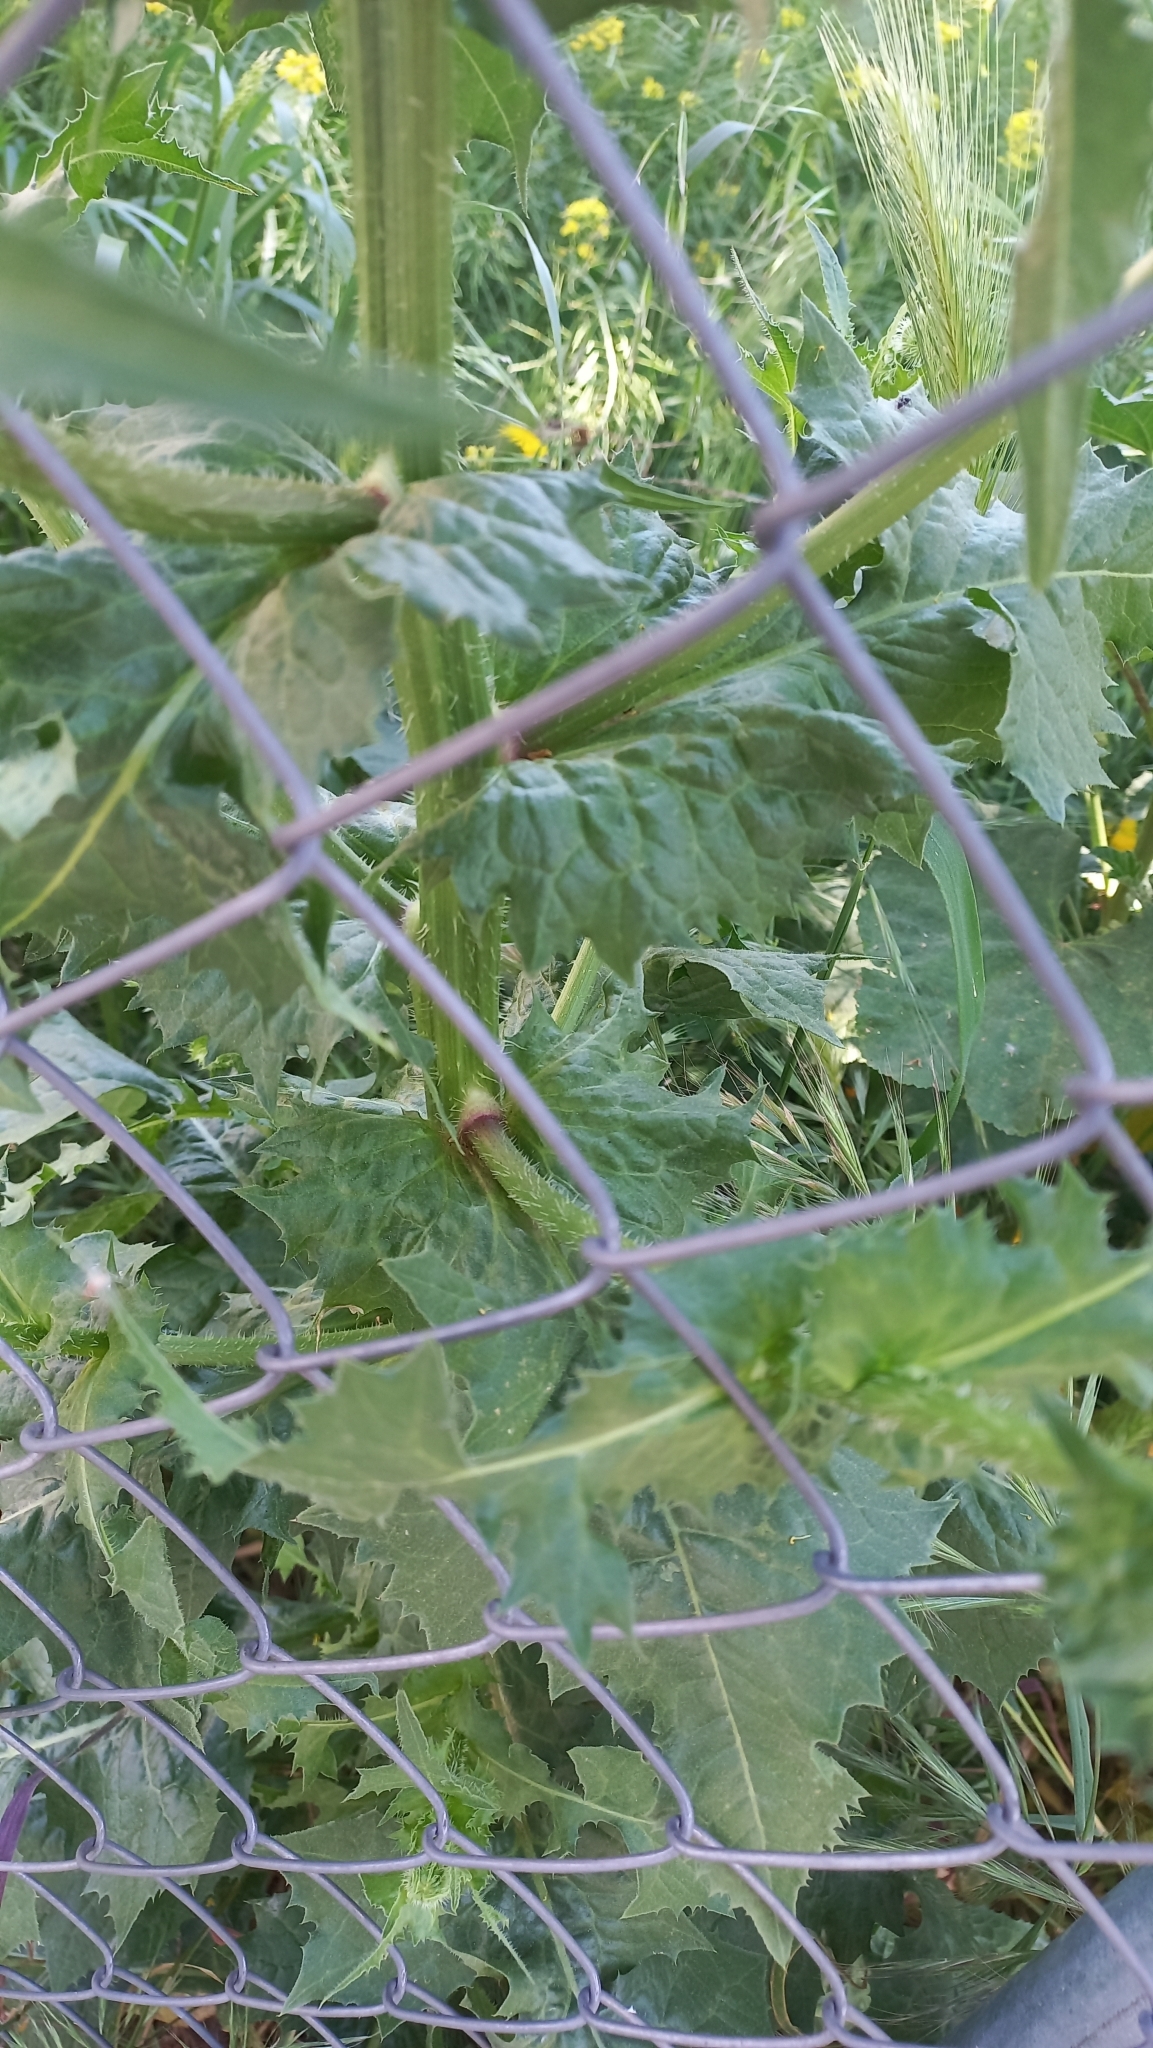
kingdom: Plantae
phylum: Tracheophyta
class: Magnoliopsida
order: Asterales
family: Asteraceae
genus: Urospermum
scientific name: Urospermum picroides
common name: False hawkbit
